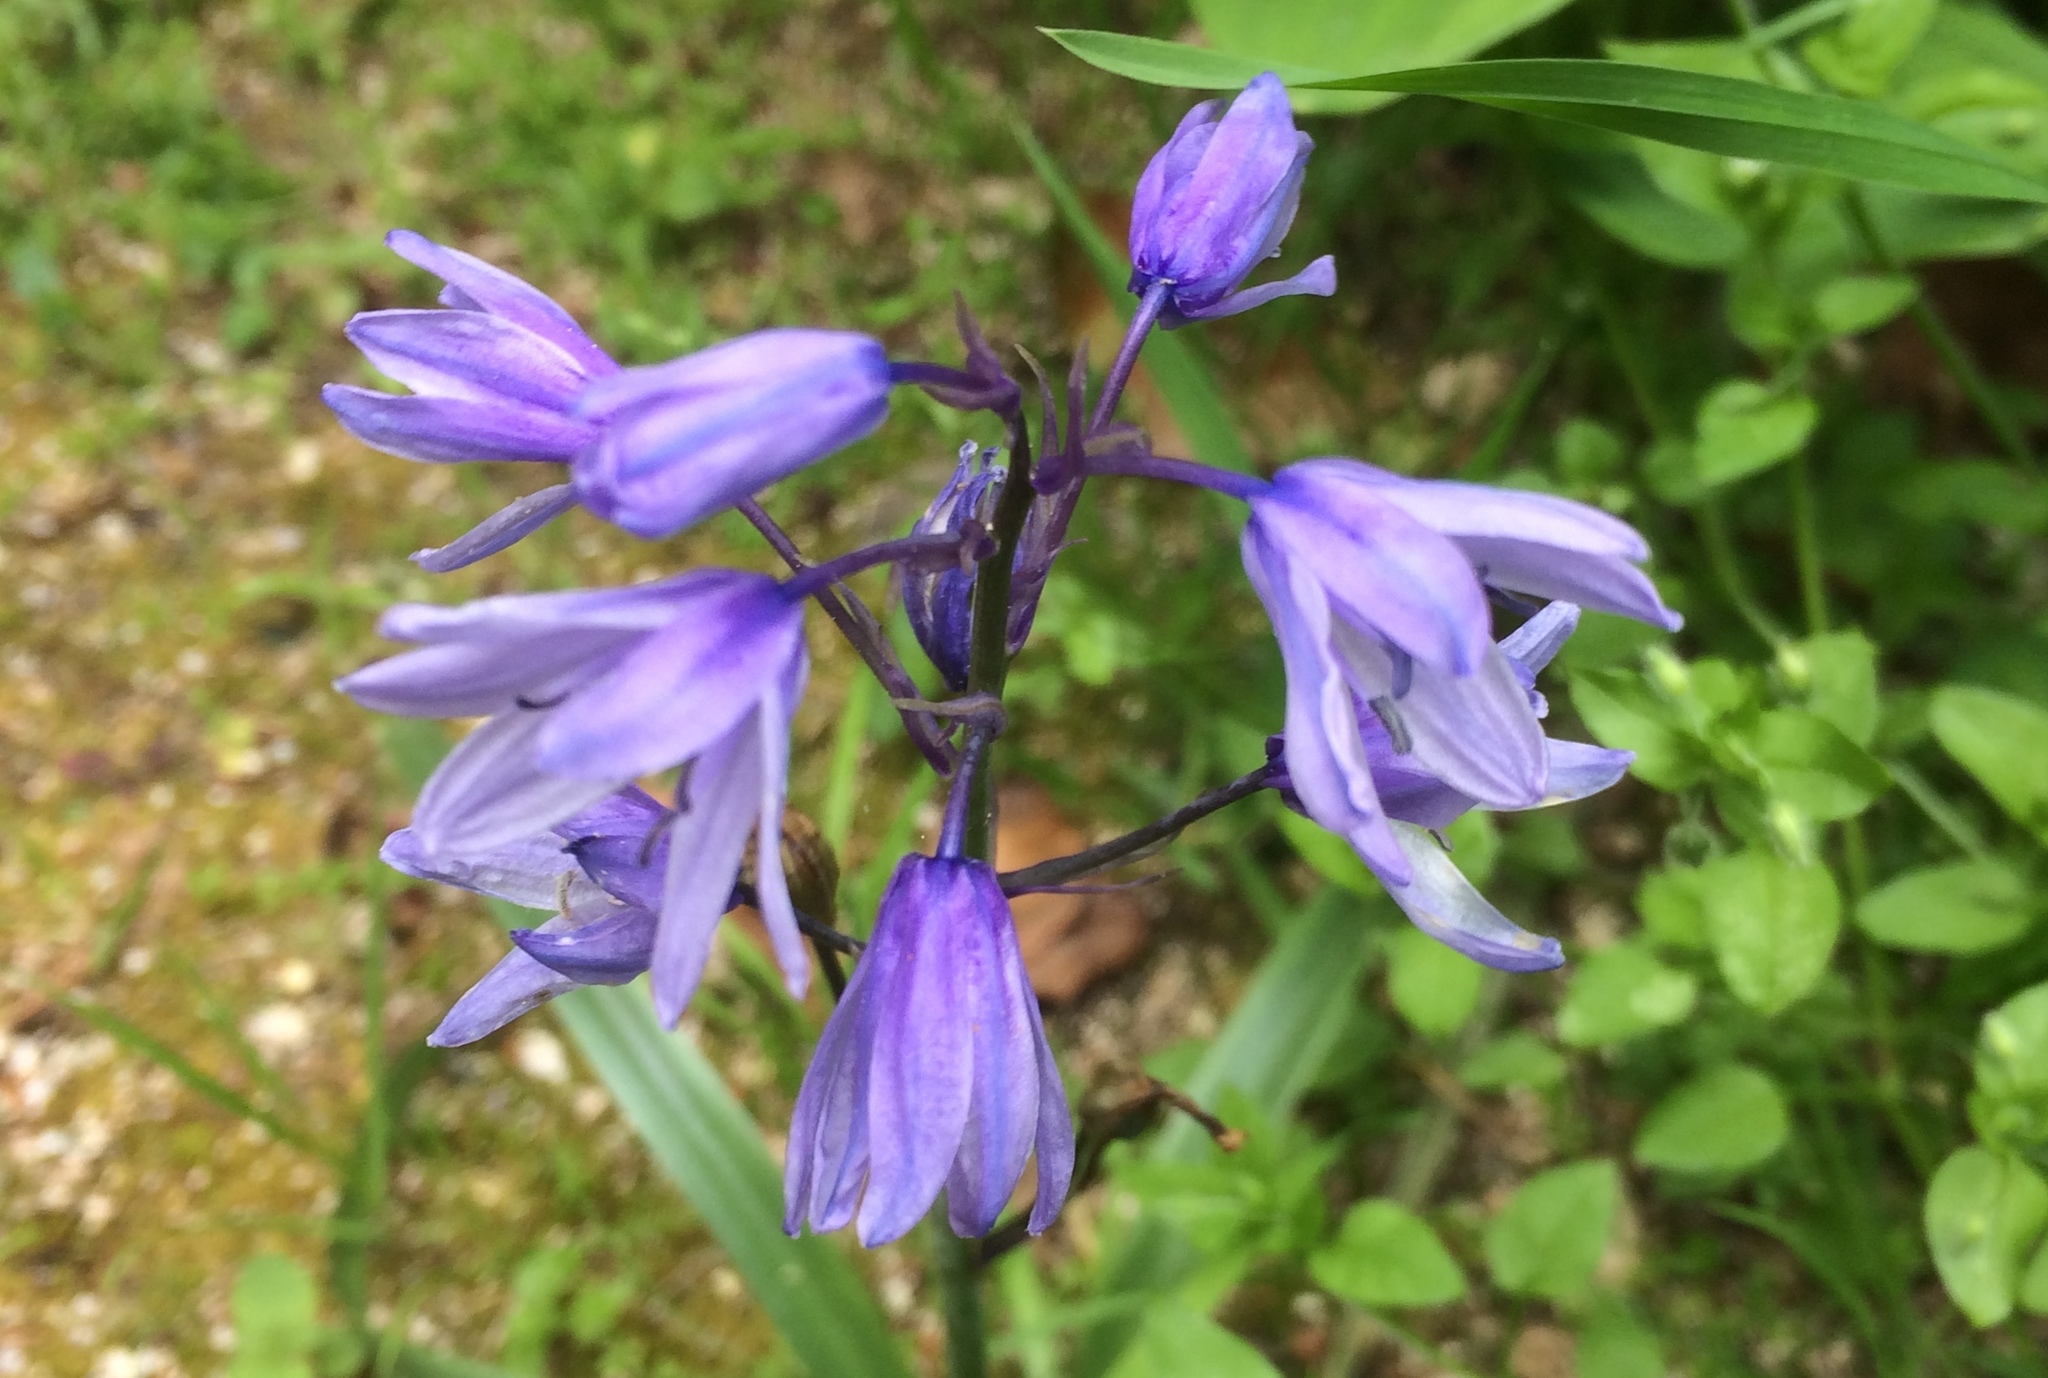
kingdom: Plantae
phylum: Tracheophyta
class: Liliopsida
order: Asparagales
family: Asparagaceae
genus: Hyacinthoides
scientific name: Hyacinthoides hispanica
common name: Spanish bluebell
